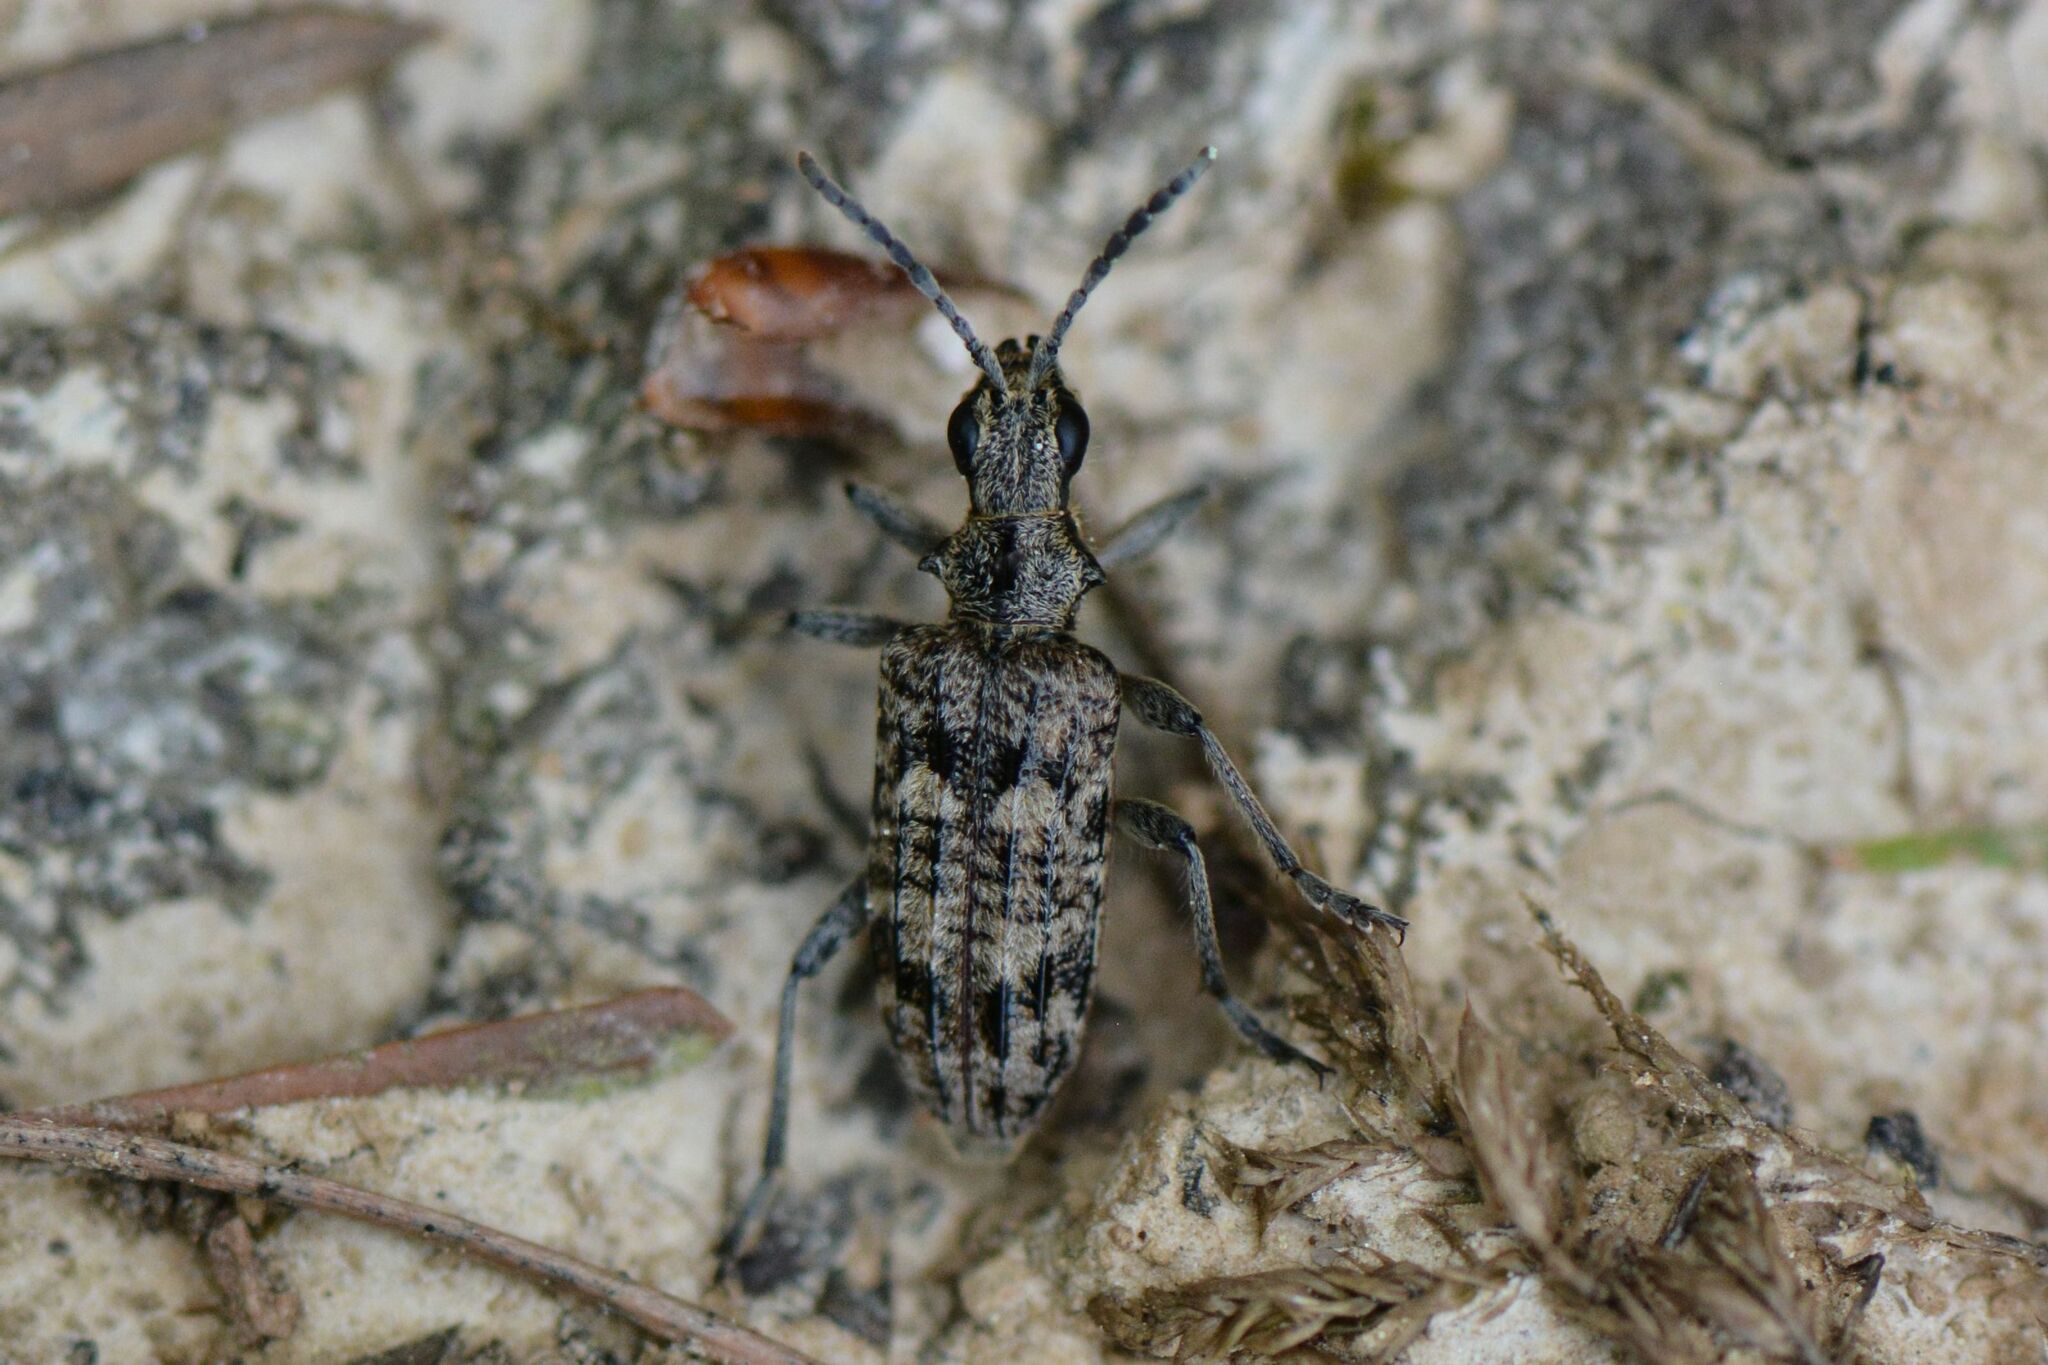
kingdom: Animalia
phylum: Arthropoda
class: Insecta
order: Coleoptera
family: Cerambycidae
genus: Rhagium
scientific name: Rhagium inquisitor
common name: Ribbed pine borer
